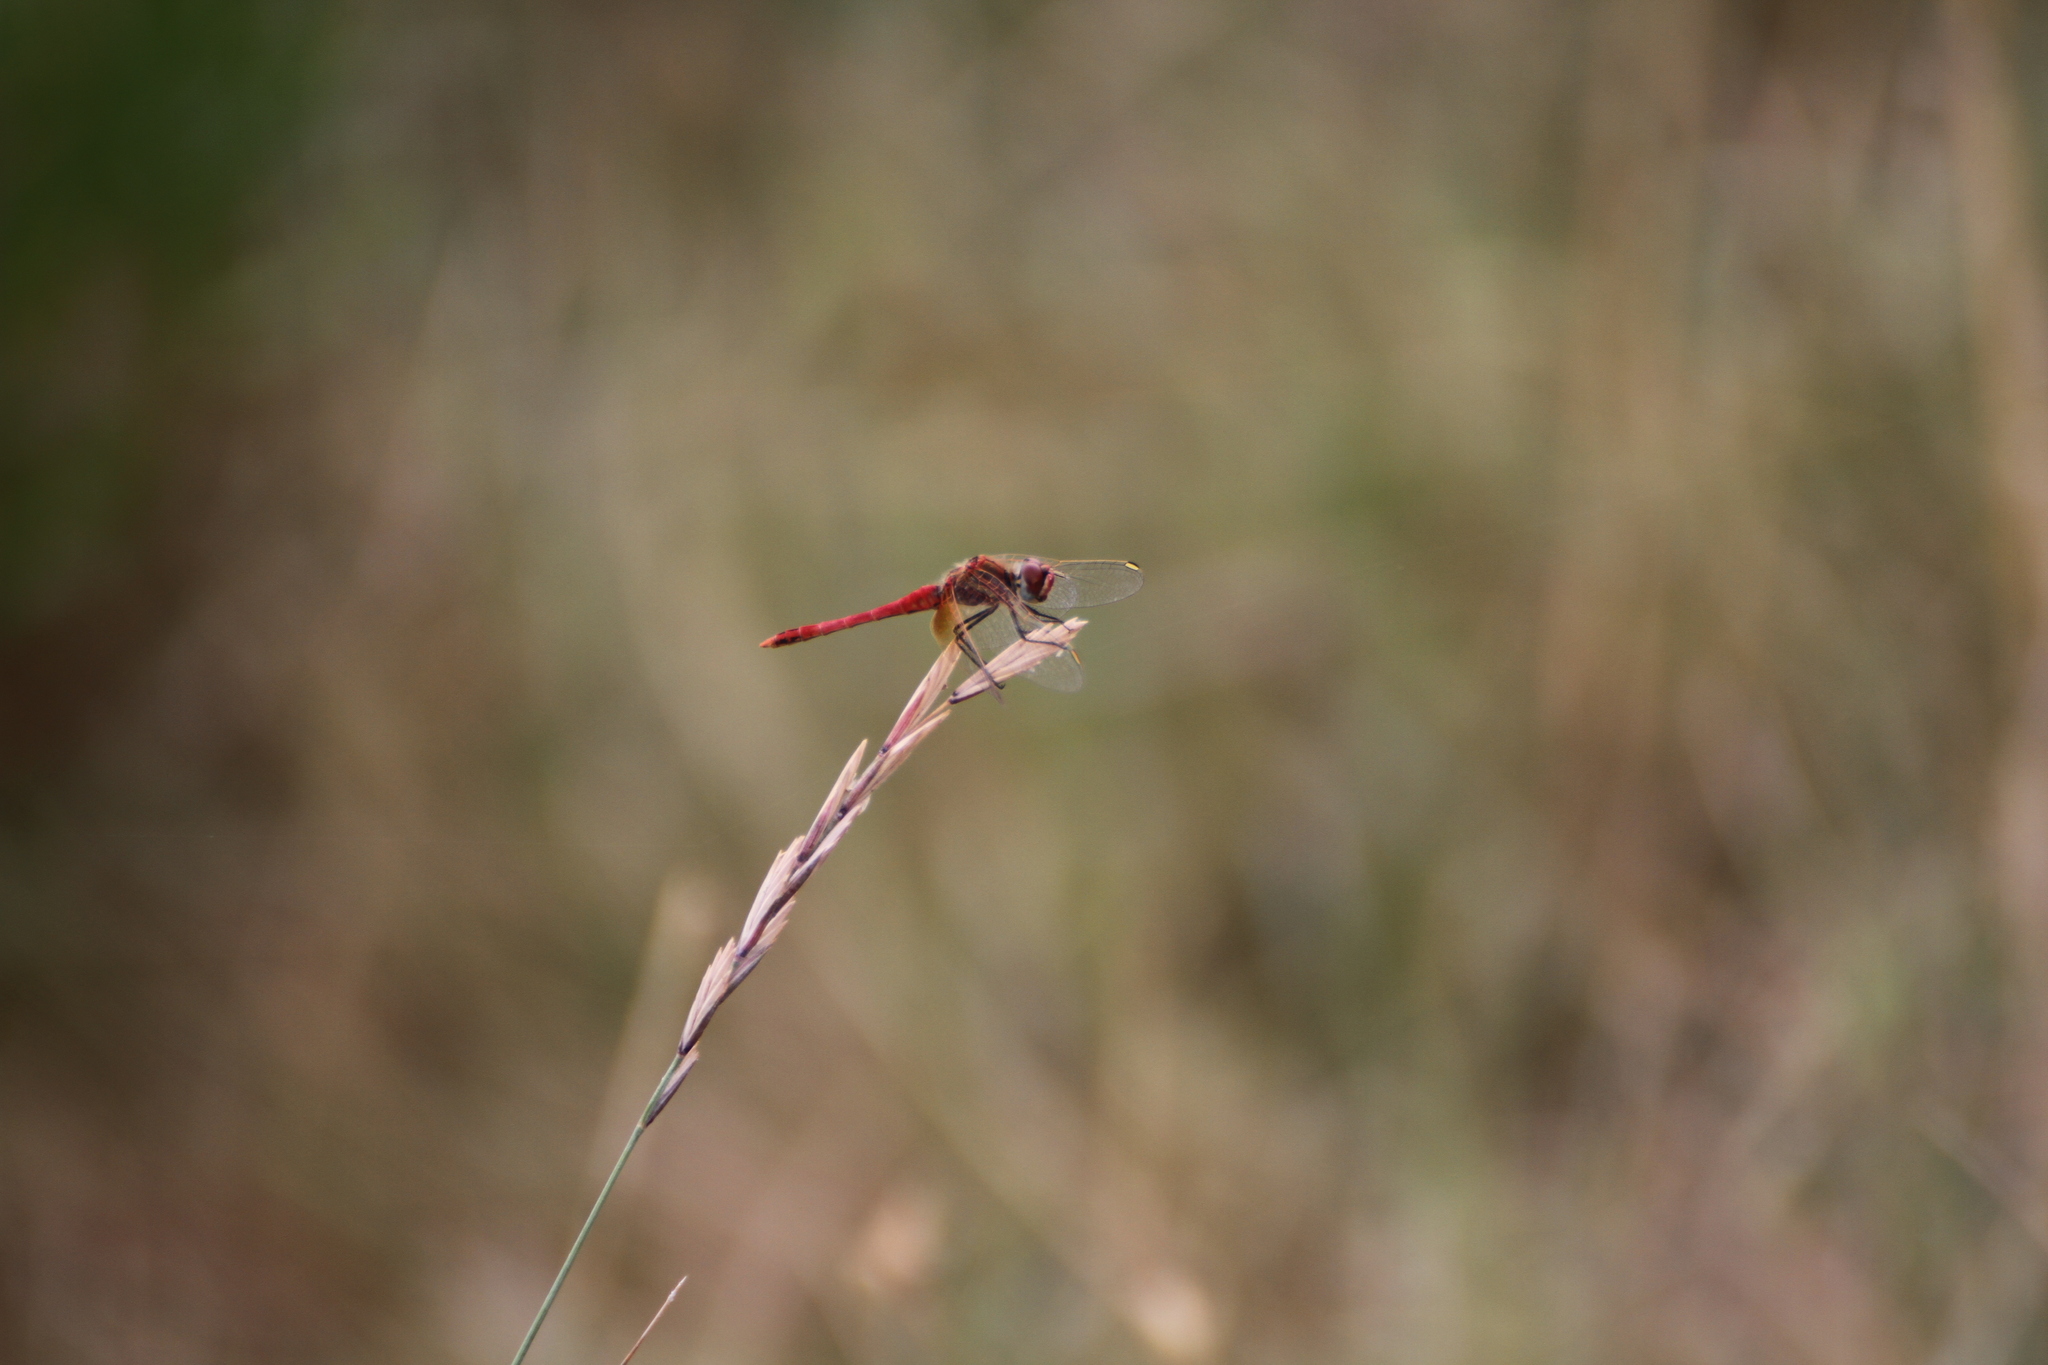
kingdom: Animalia
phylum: Arthropoda
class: Insecta
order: Odonata
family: Libellulidae
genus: Sympetrum
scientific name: Sympetrum fonscolombii
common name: Red-veined darter
